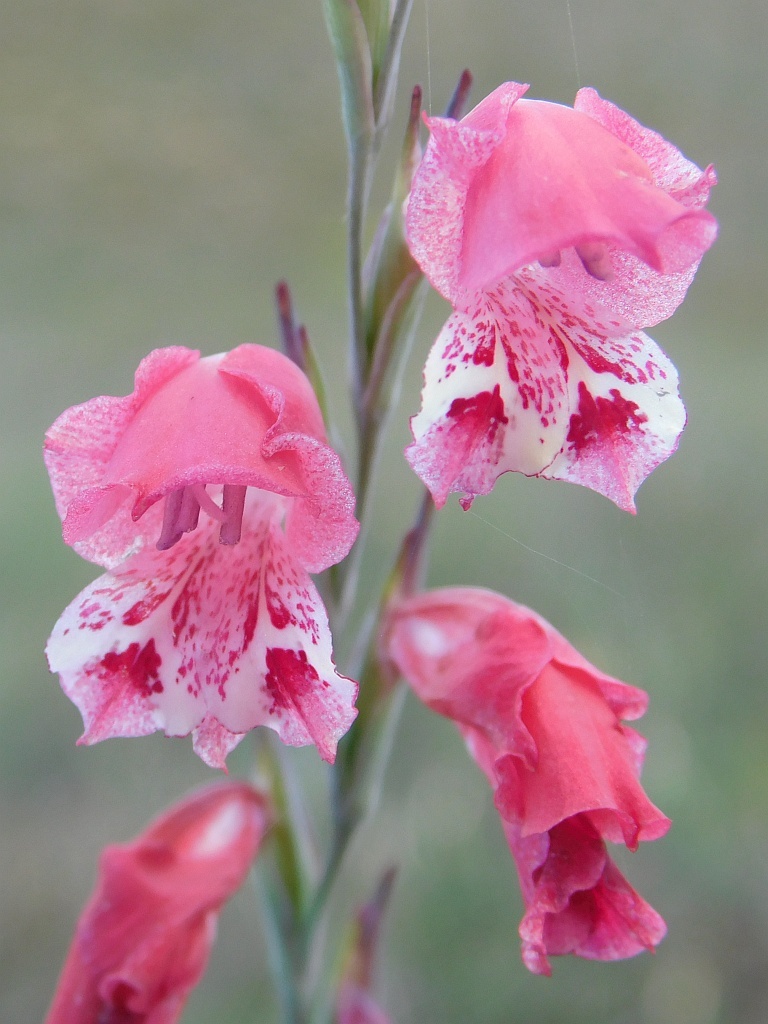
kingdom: Plantae
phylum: Tracheophyta
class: Liliopsida
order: Asparagales
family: Iridaceae
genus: Gladiolus
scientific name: Gladiolus brevifolius
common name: March pypie
